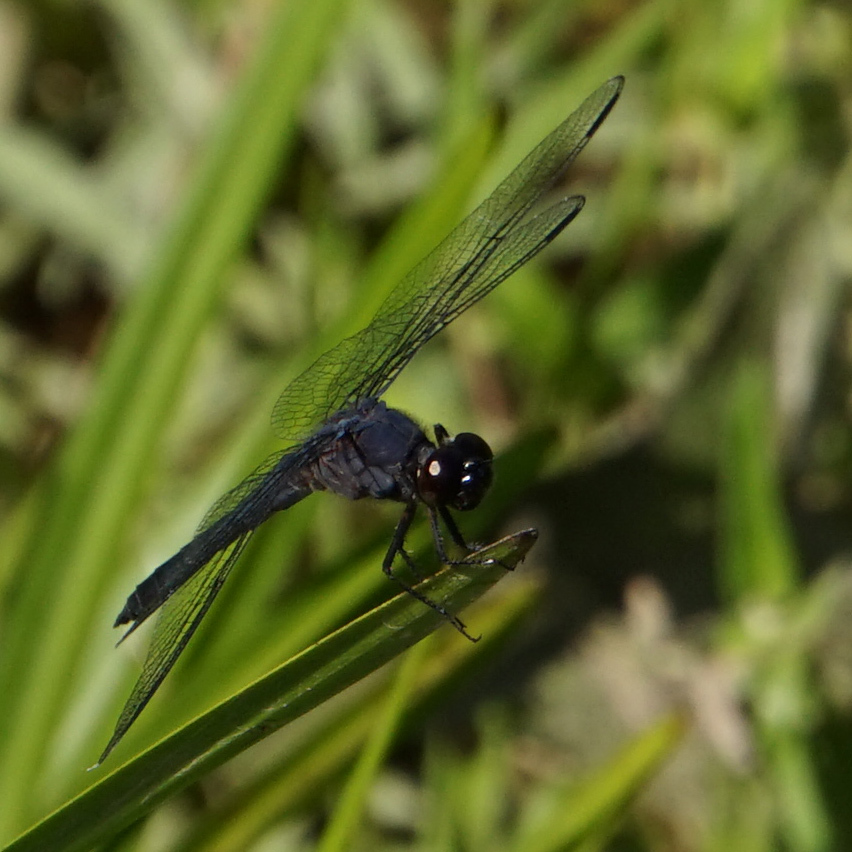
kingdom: Animalia
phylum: Arthropoda
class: Insecta
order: Odonata
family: Libellulidae
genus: Libellula
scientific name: Libellula incesta
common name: Slaty skimmer
